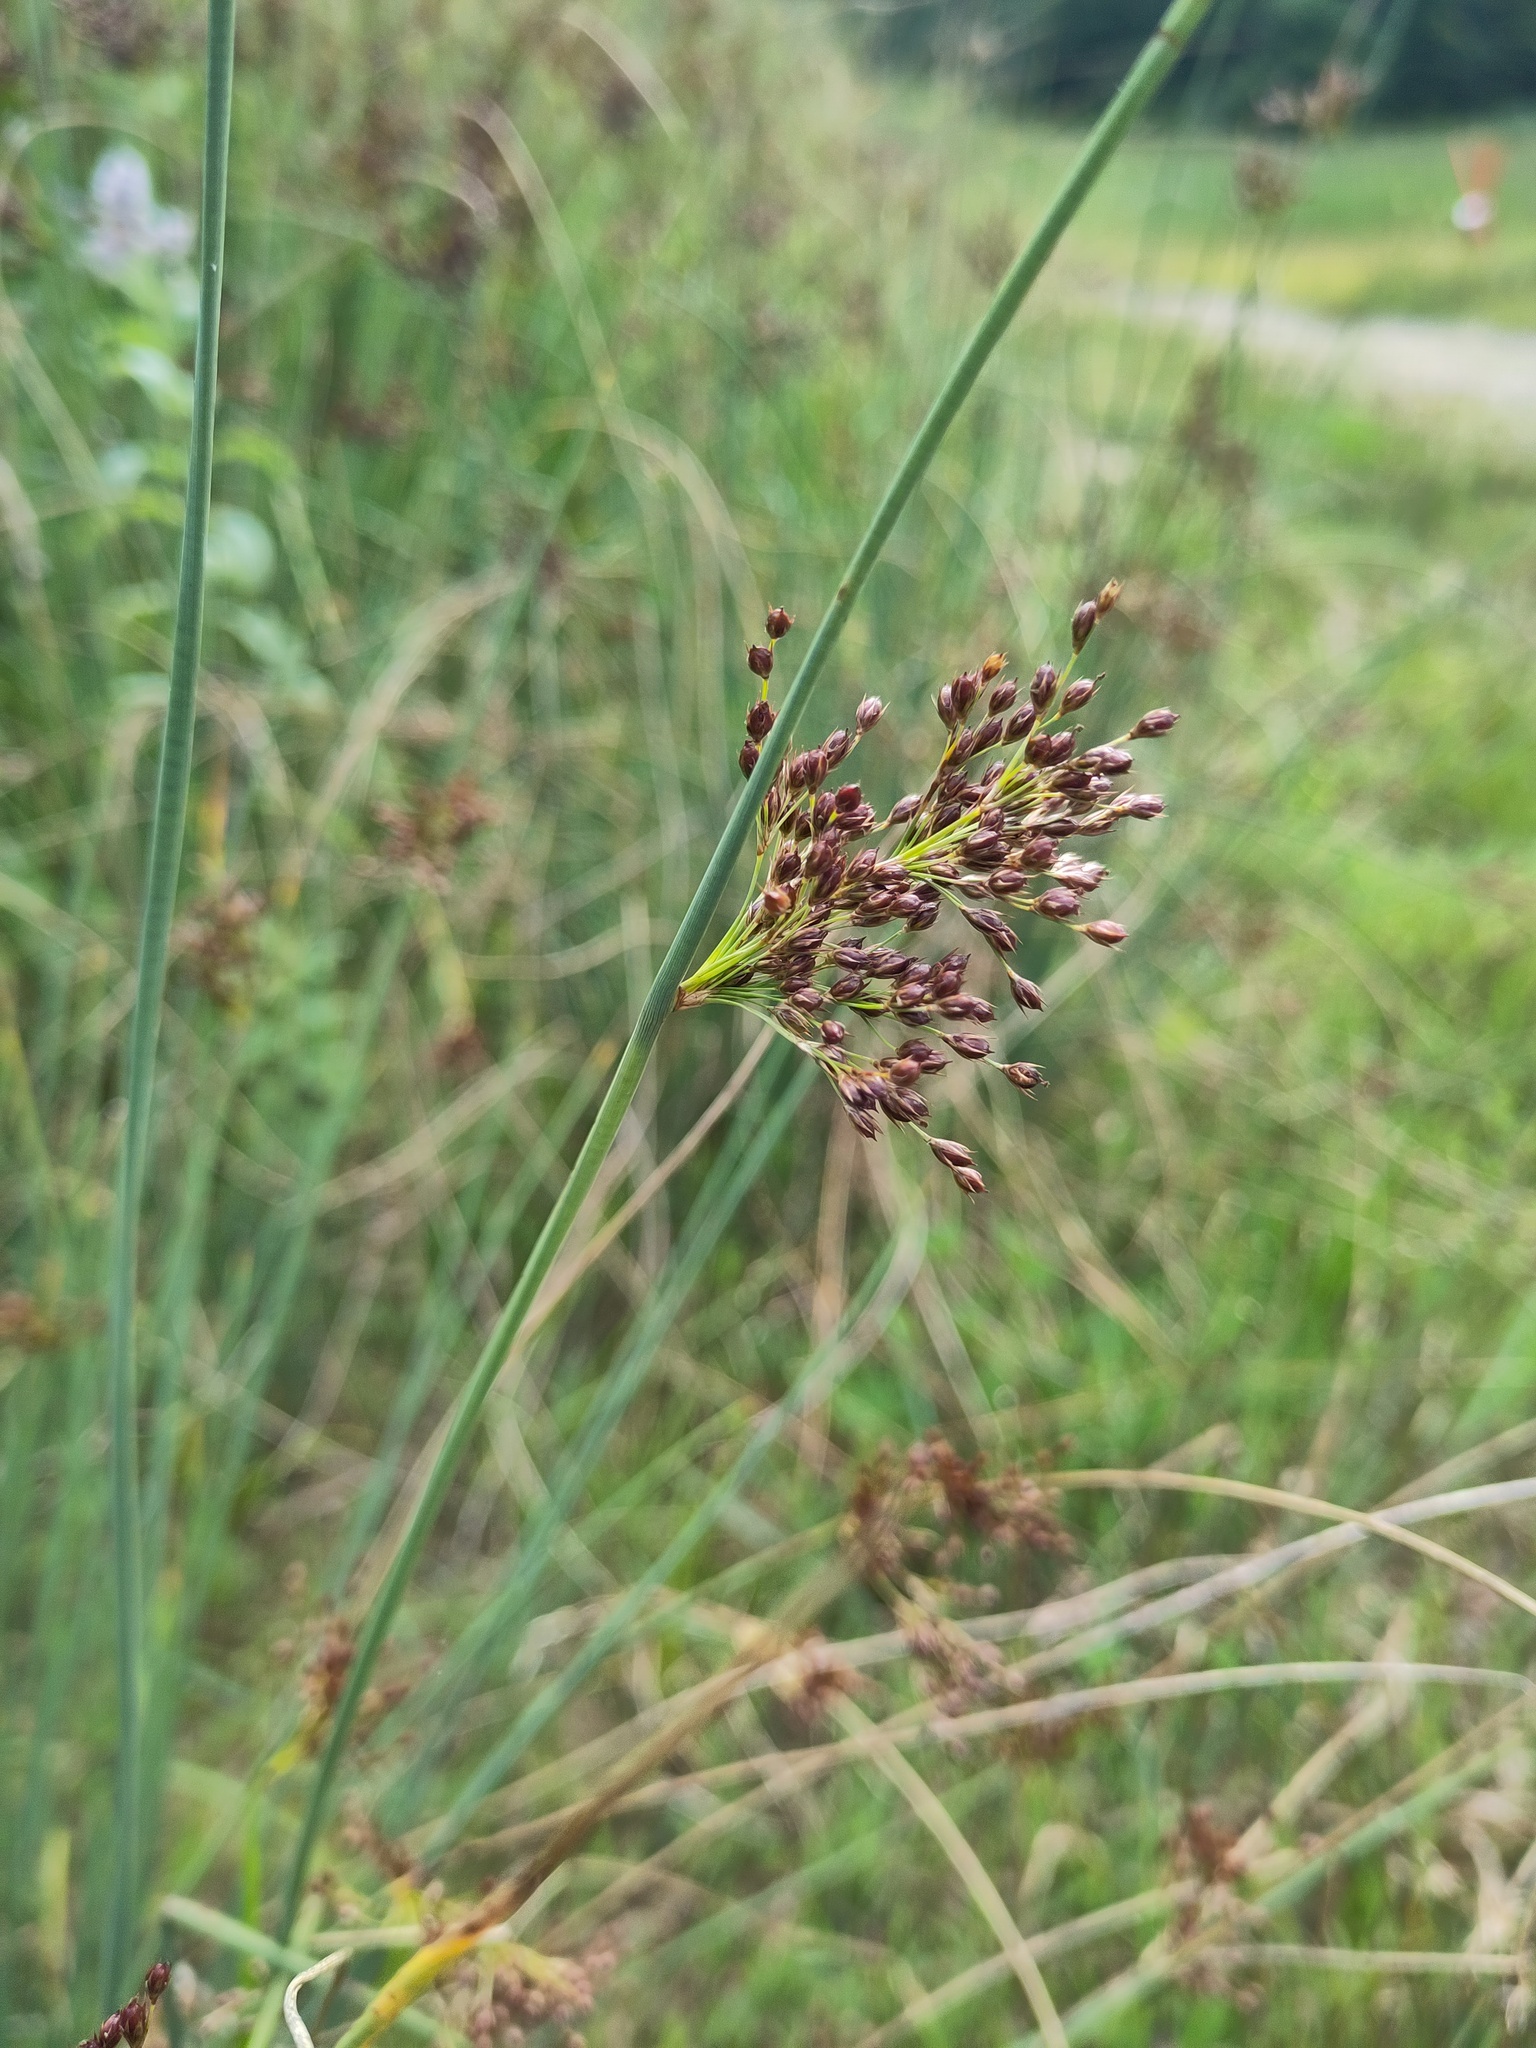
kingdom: Plantae
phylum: Tracheophyta
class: Liliopsida
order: Poales
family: Juncaceae
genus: Juncus
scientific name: Juncus inflexus
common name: Hard rush
